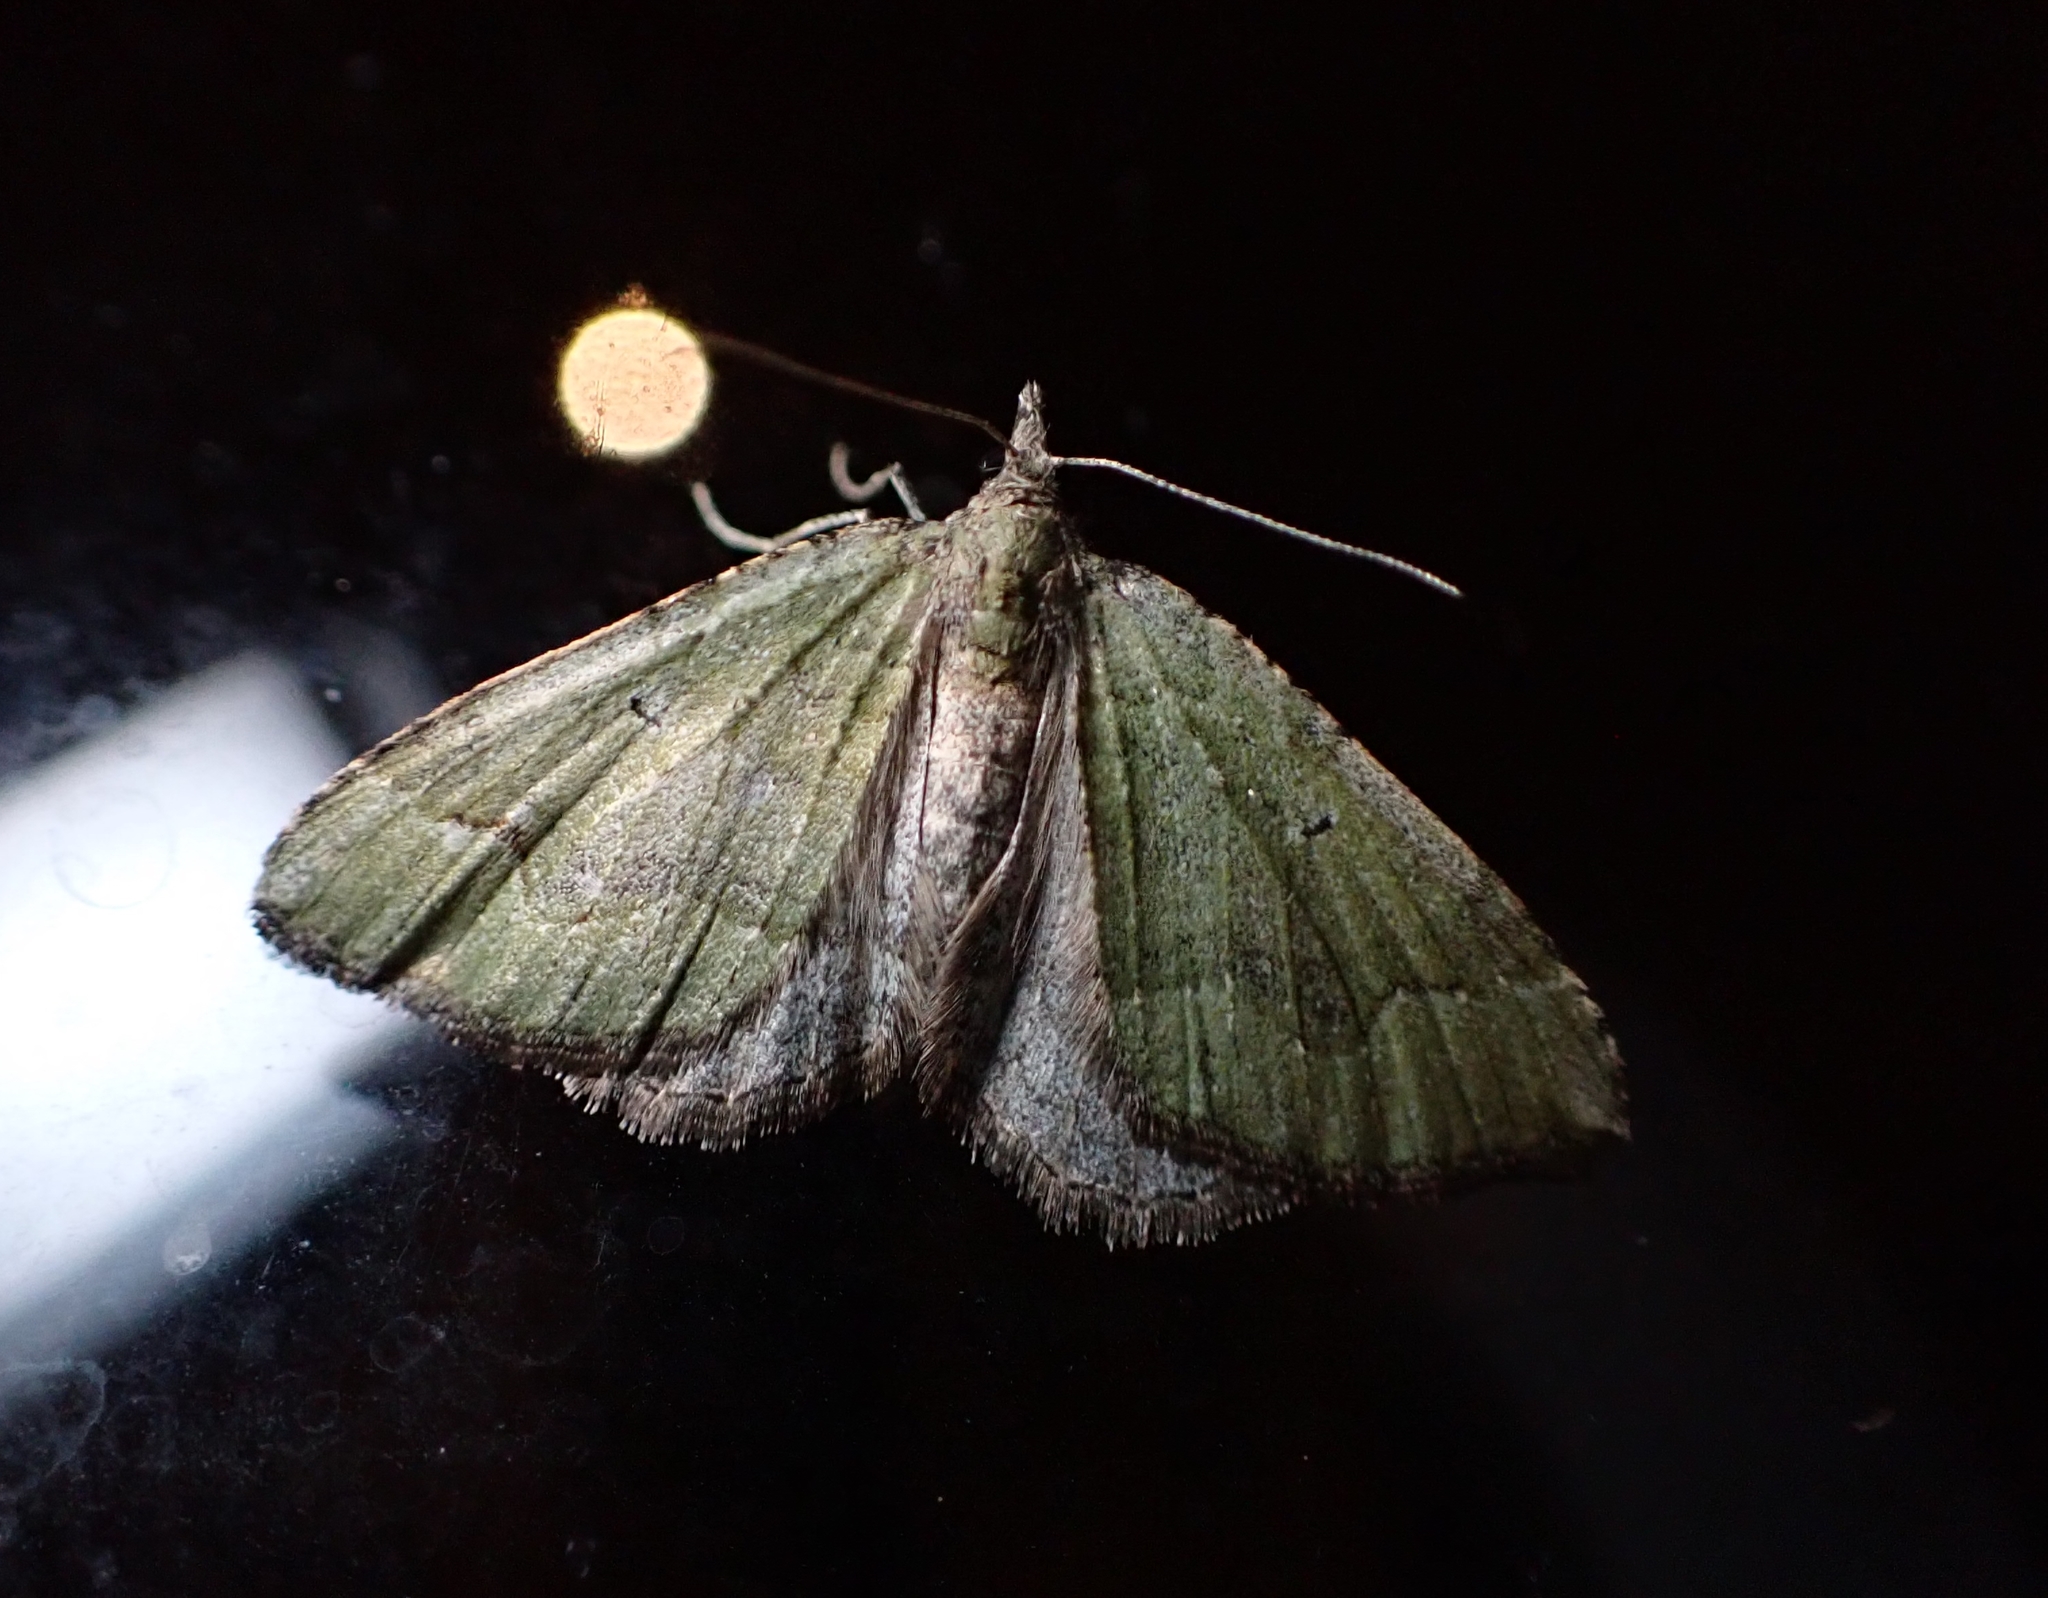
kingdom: Animalia
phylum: Arthropoda
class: Insecta
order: Lepidoptera
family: Geometridae
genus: Epyaxa
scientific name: Epyaxa rosearia
